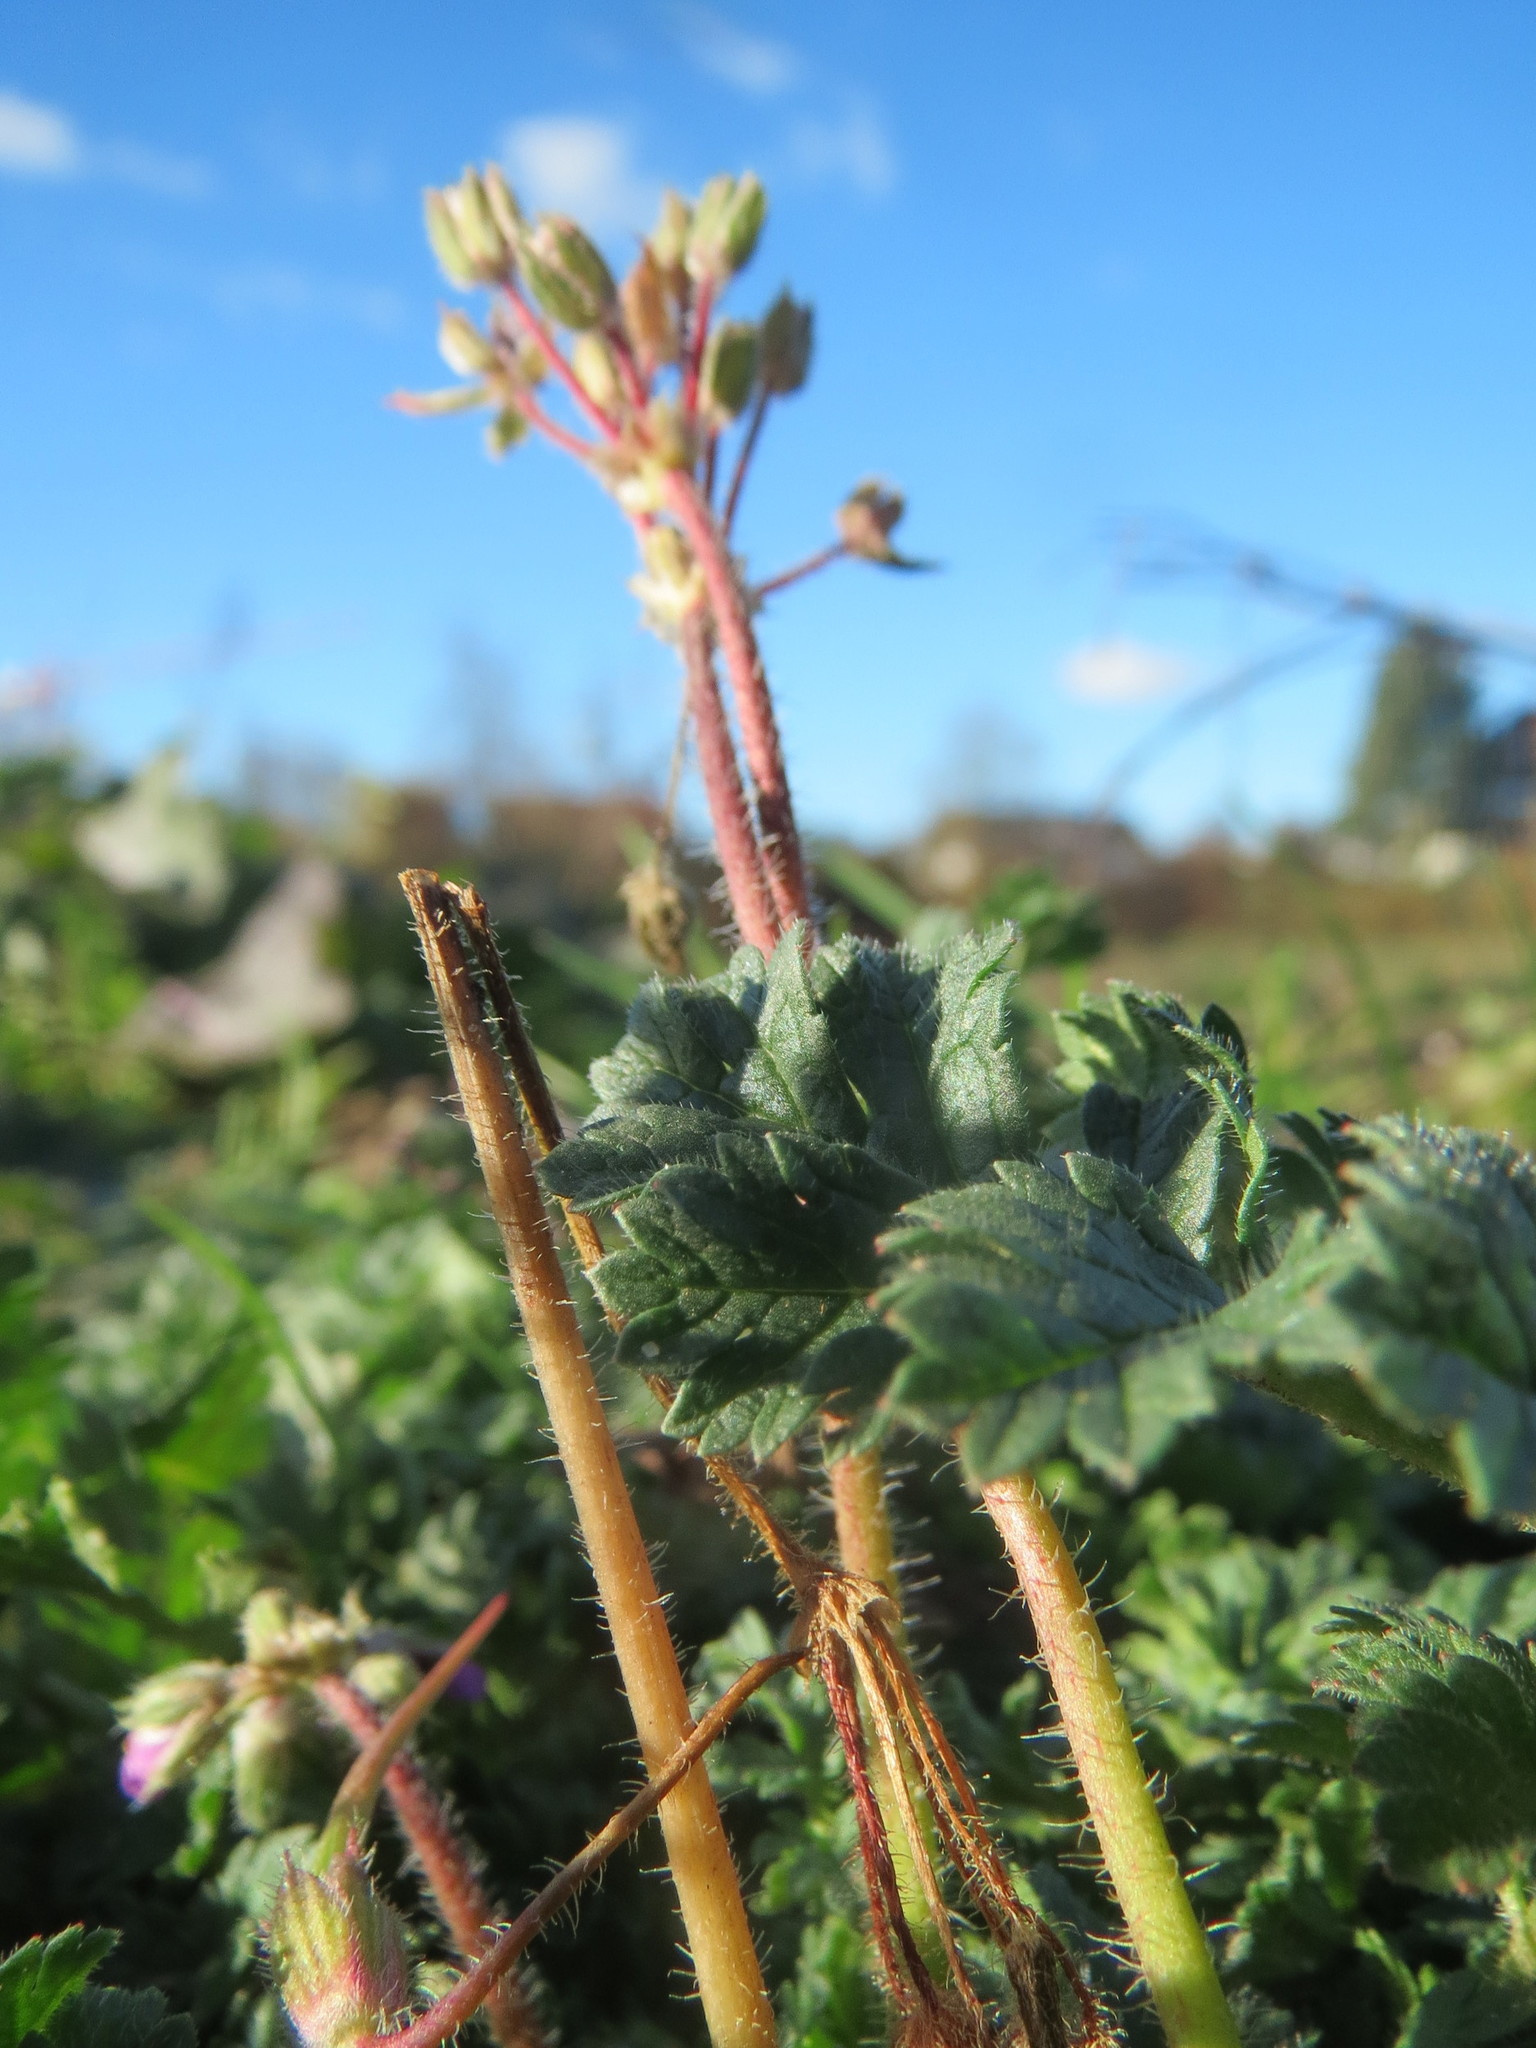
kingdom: Plantae
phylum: Tracheophyta
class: Magnoliopsida
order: Geraniales
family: Geraniaceae
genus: Erodium
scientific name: Erodium cicutarium
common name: Common stork's-bill
